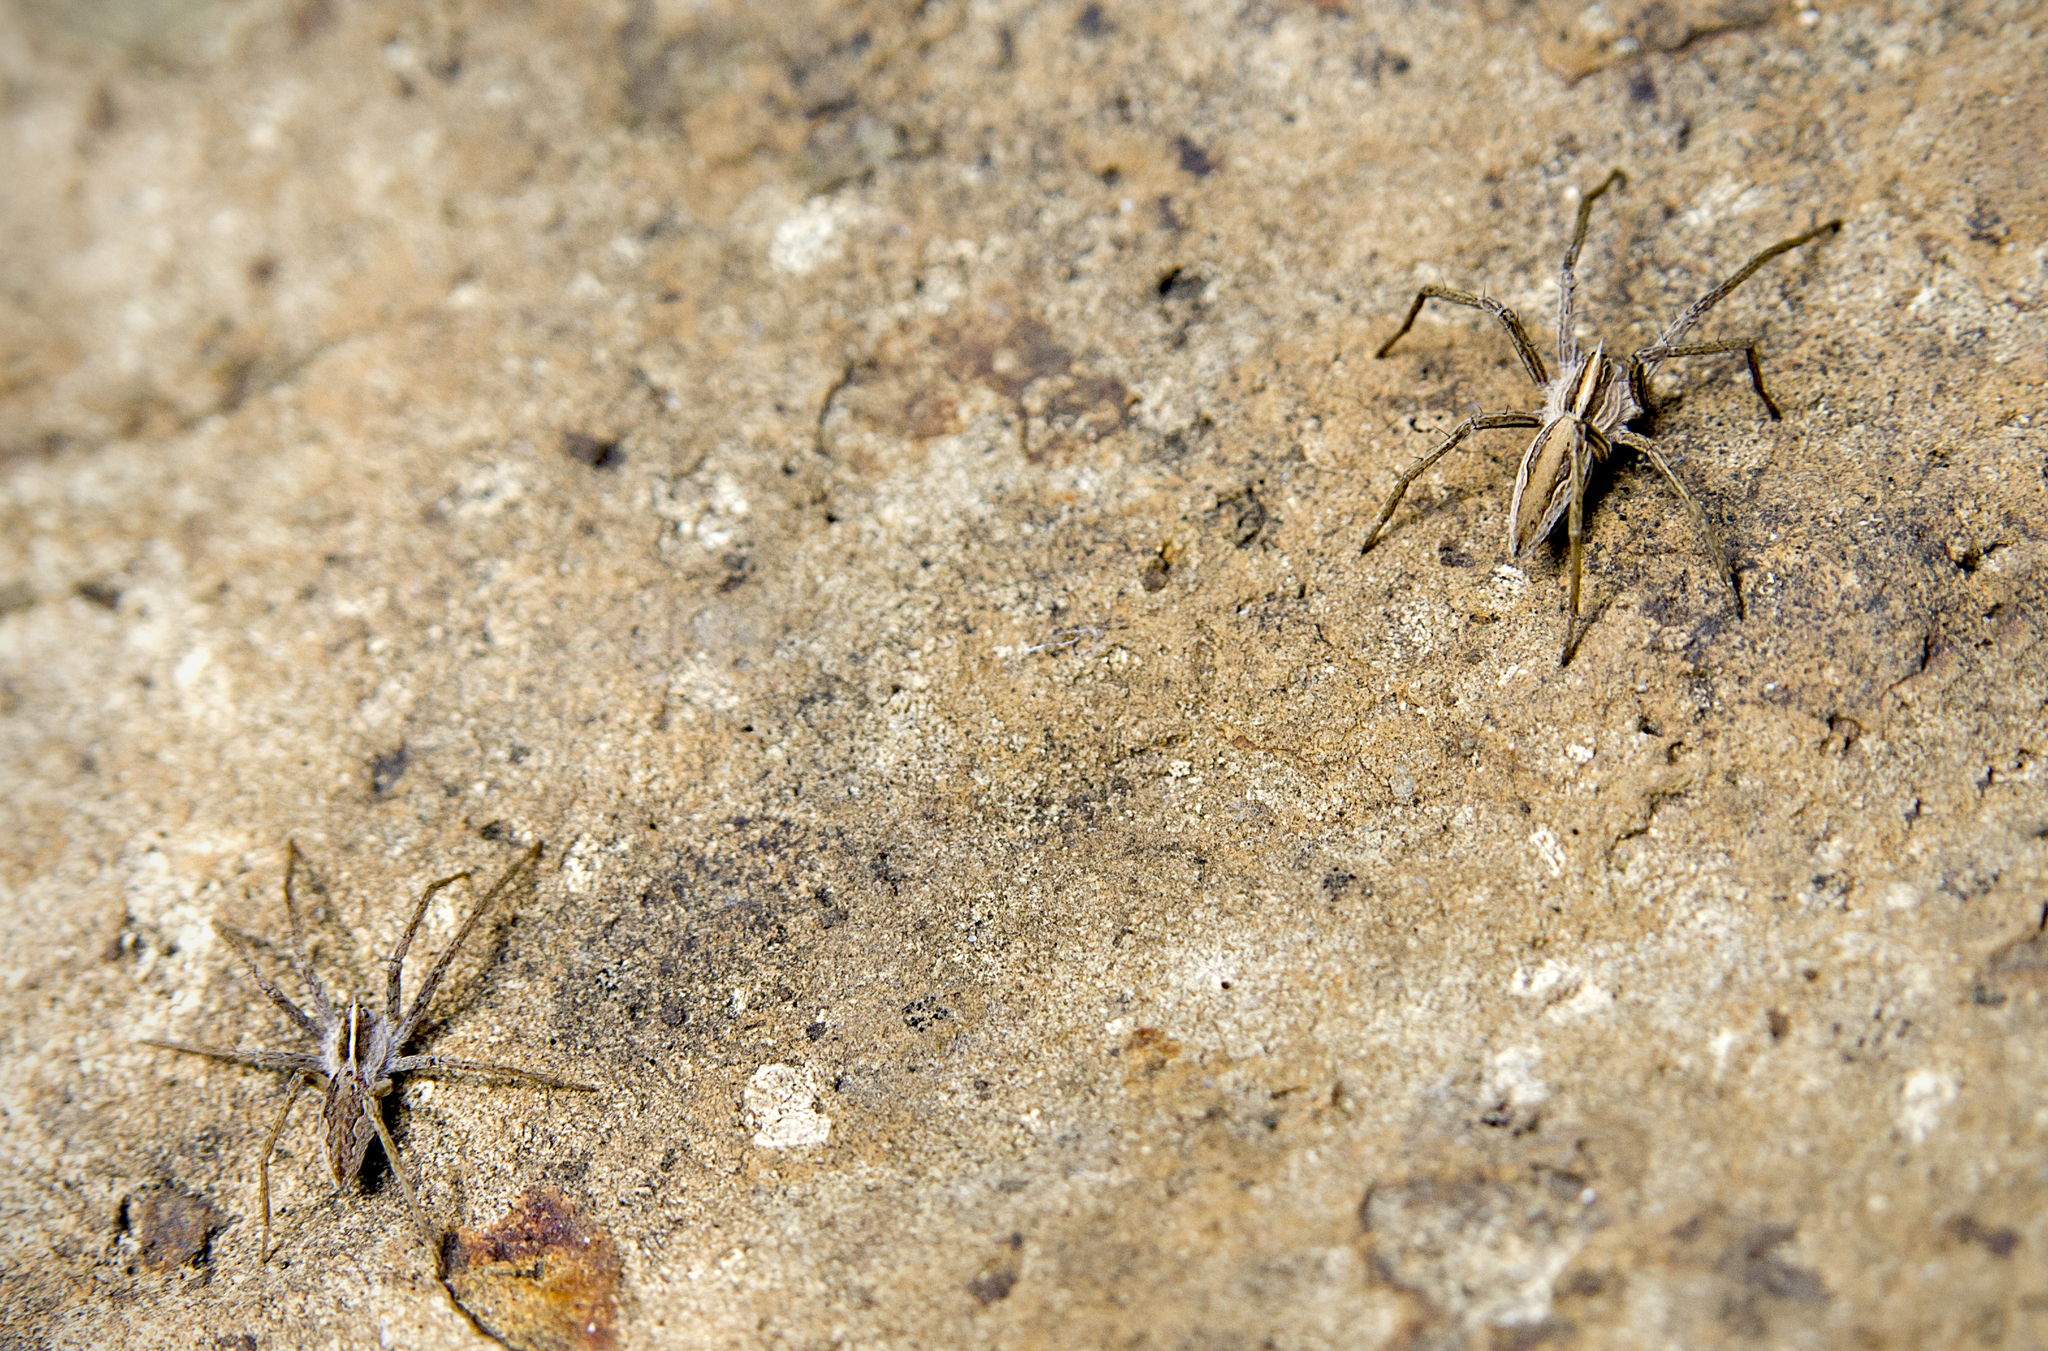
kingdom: Animalia
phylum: Arthropoda
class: Arachnida
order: Araneae
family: Pisauridae
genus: Pisaura
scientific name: Pisaura mirabilis
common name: Tent spider
